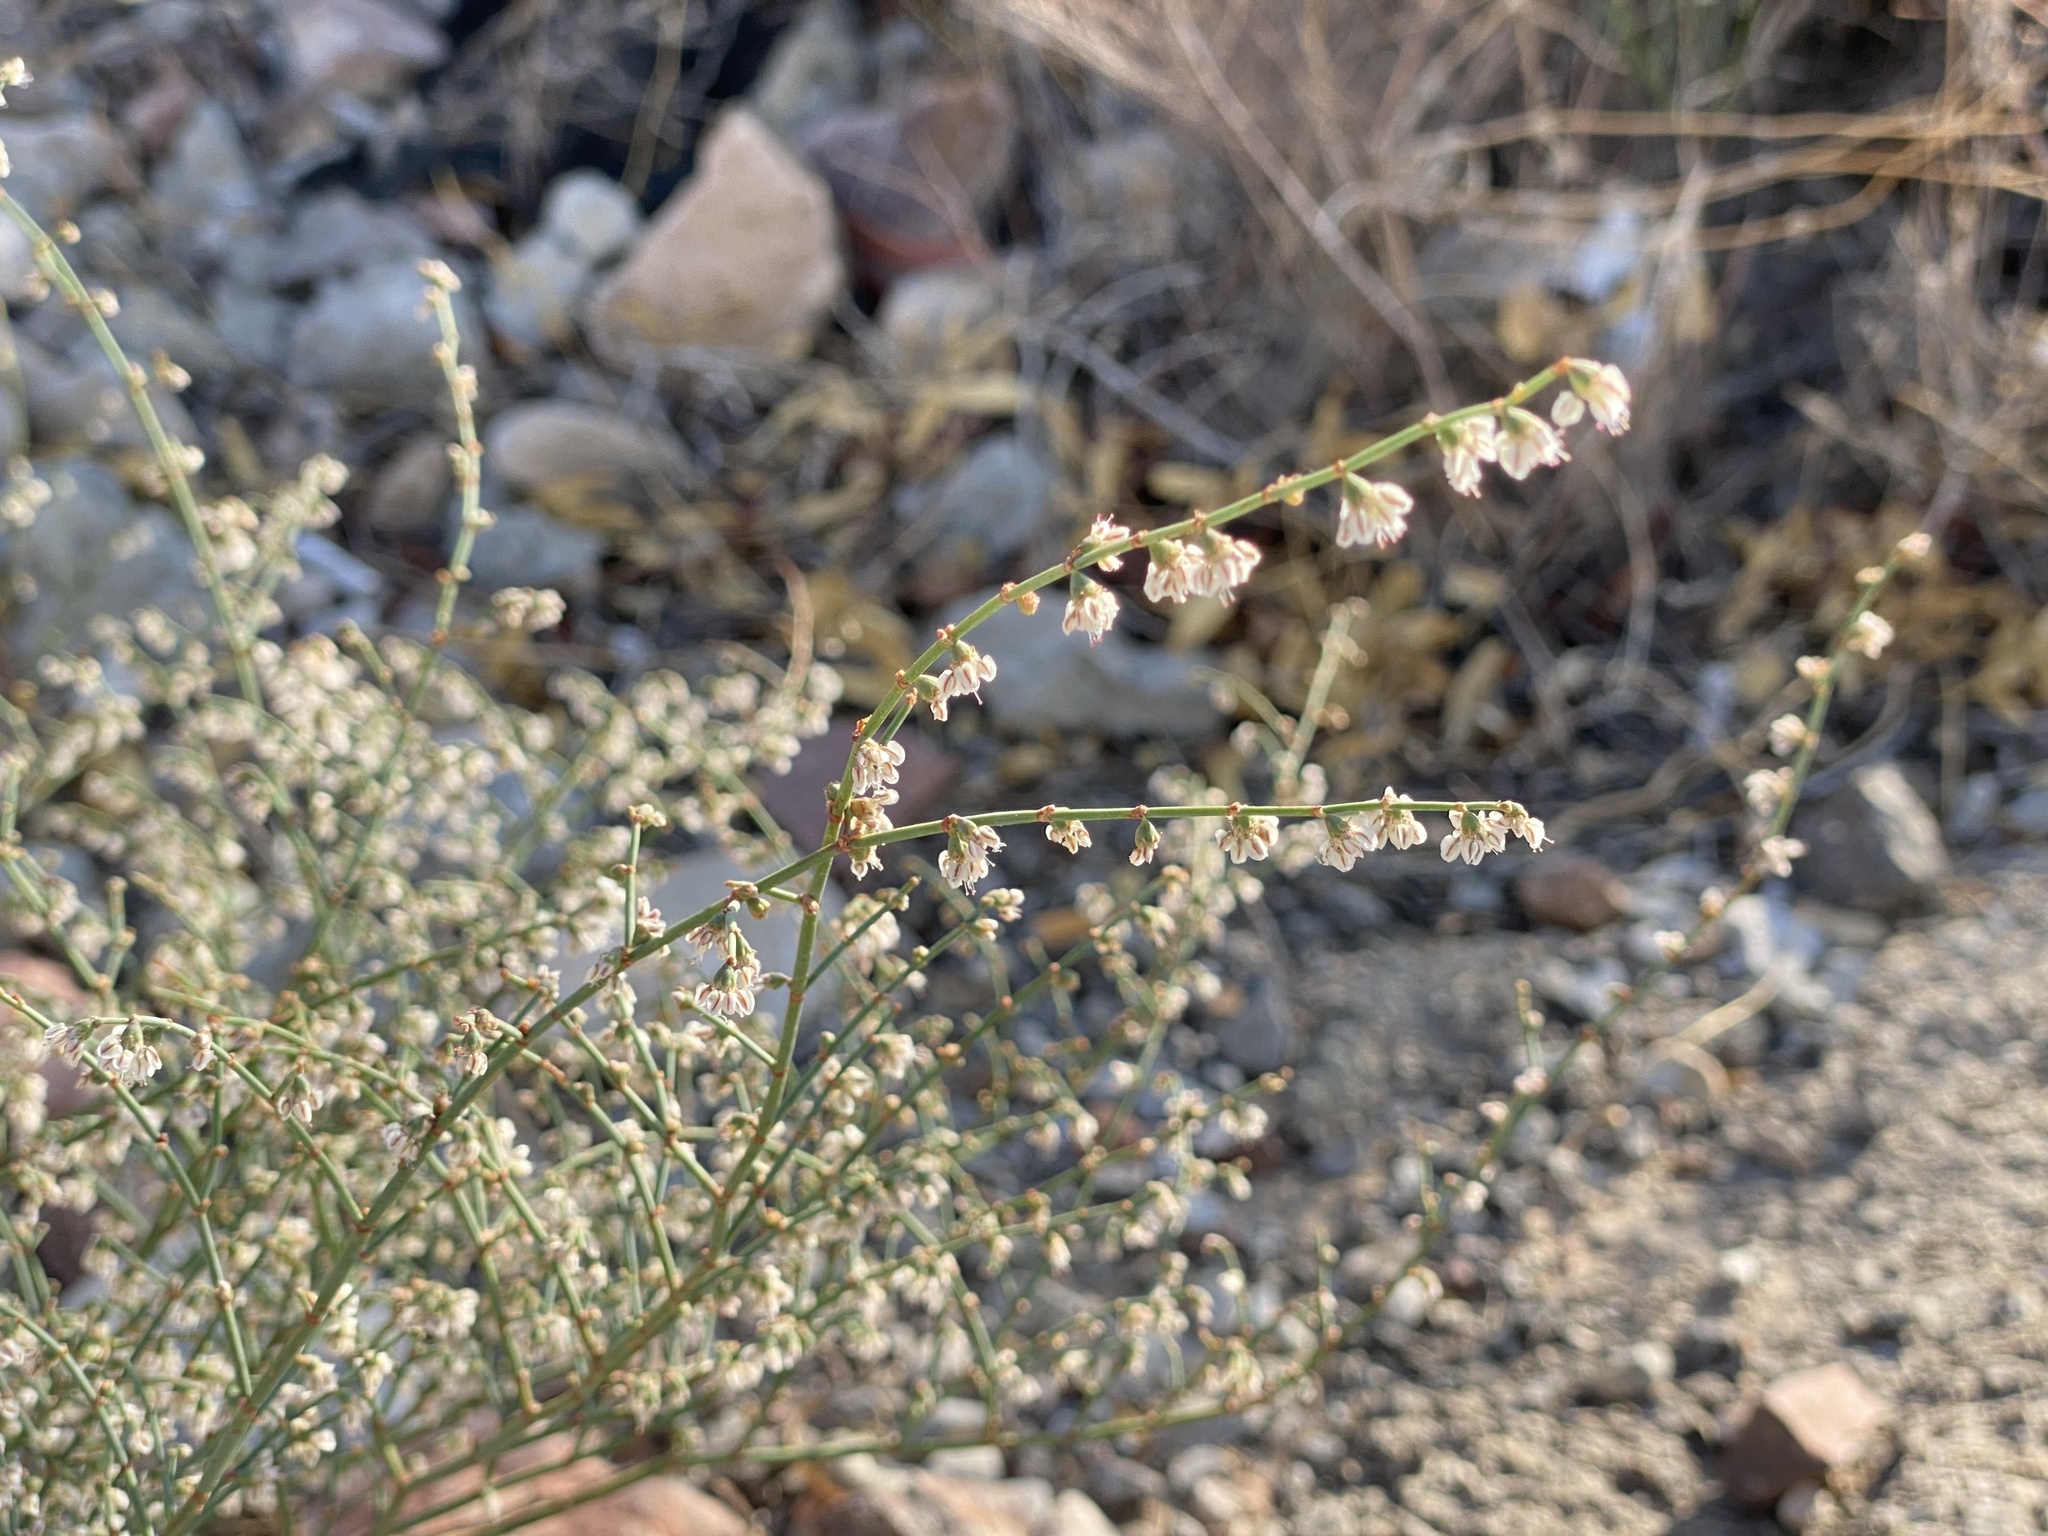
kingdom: Plantae
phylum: Tracheophyta
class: Magnoliopsida
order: Caryophyllales
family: Polygonaceae
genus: Eriogonum
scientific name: Eriogonum deflexum
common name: Skeleton-weed
